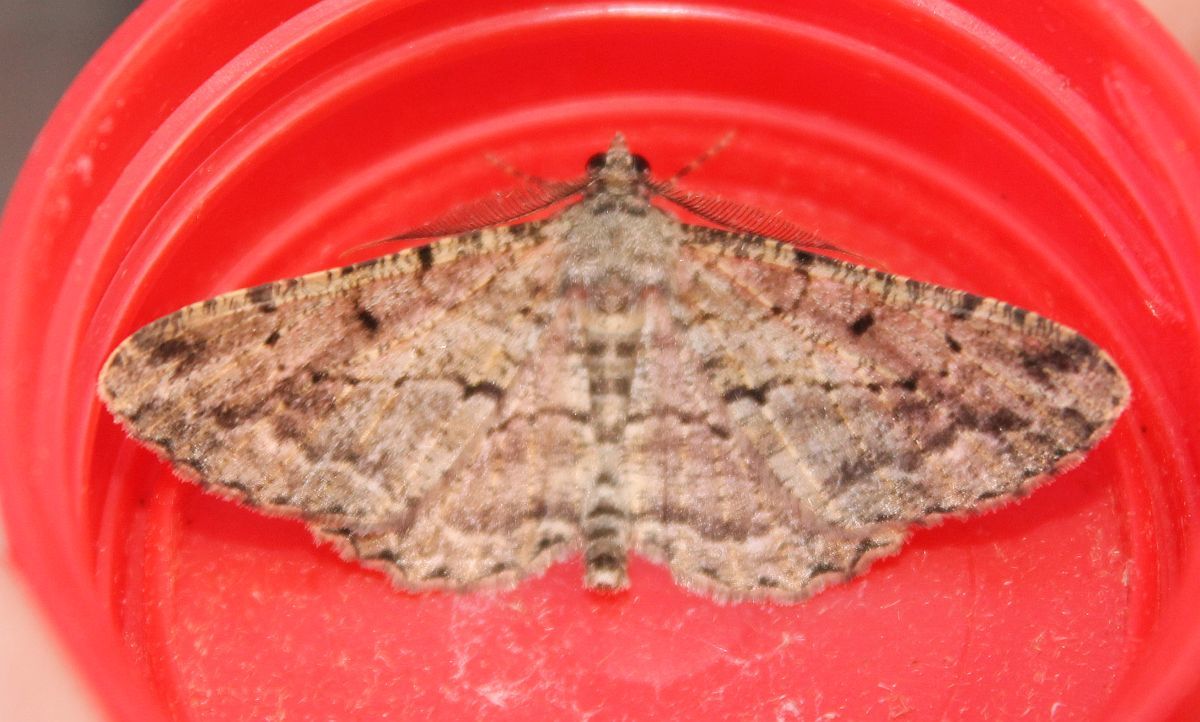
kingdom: Animalia
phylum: Arthropoda
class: Insecta
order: Lepidoptera
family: Geometridae
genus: Peribatodes
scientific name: Peribatodes rhomboidaria
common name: Willow beauty
